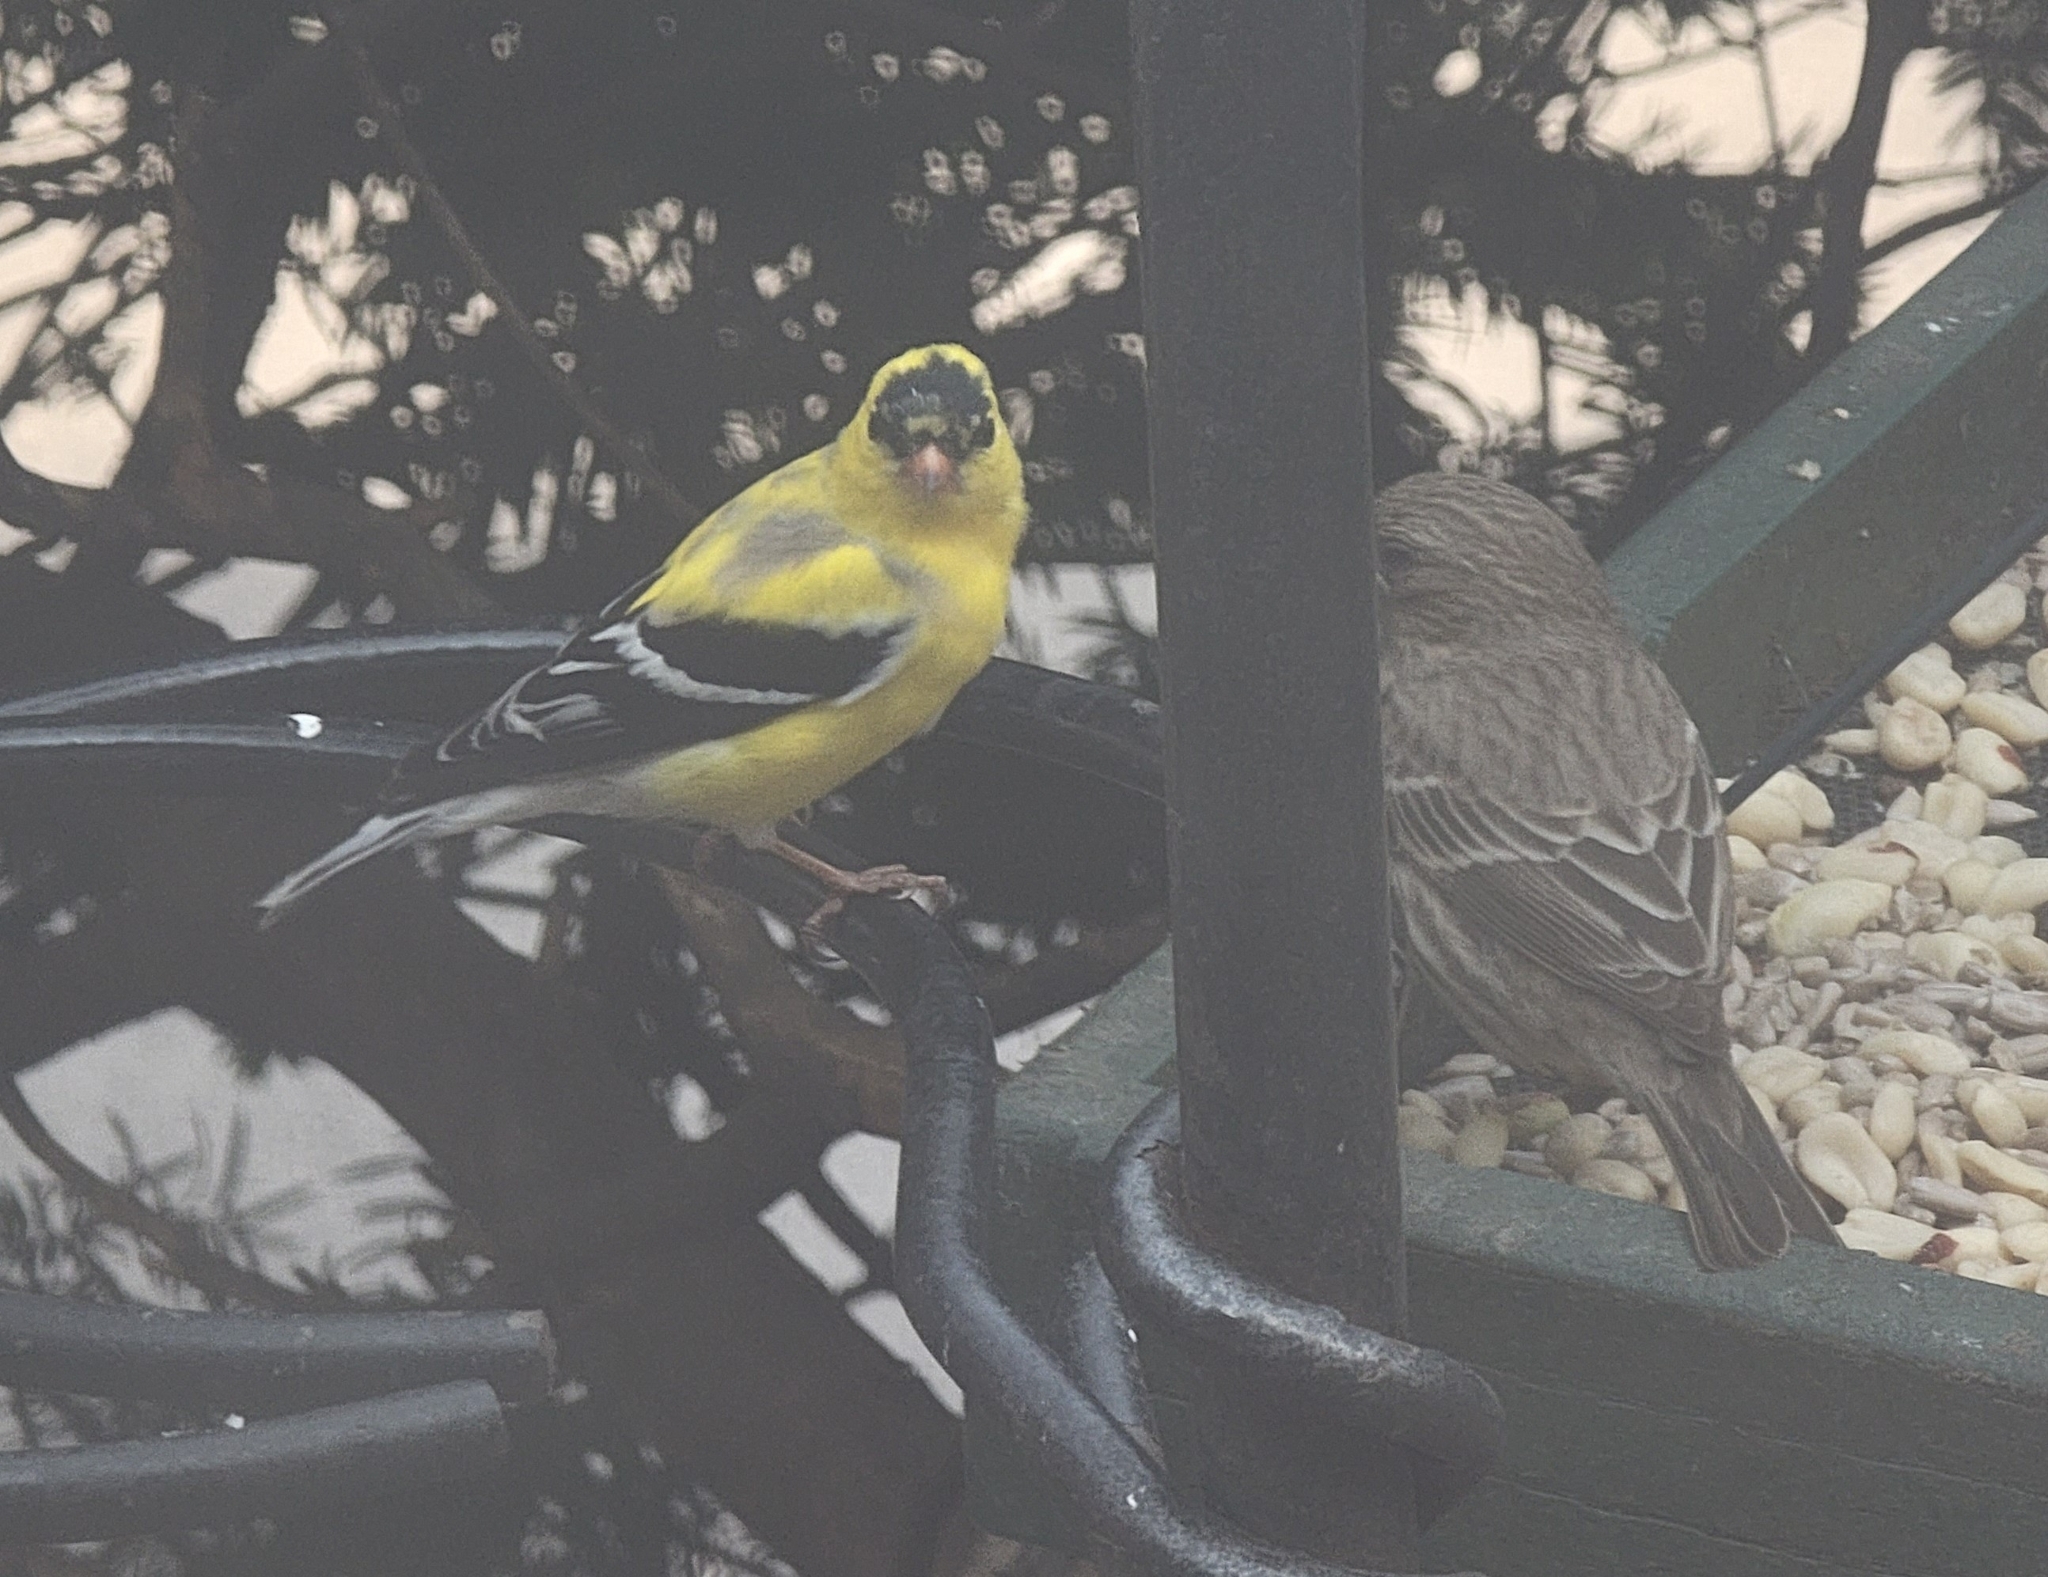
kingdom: Animalia
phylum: Chordata
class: Aves
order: Passeriformes
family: Fringillidae
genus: Spinus
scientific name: Spinus tristis
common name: American goldfinch
